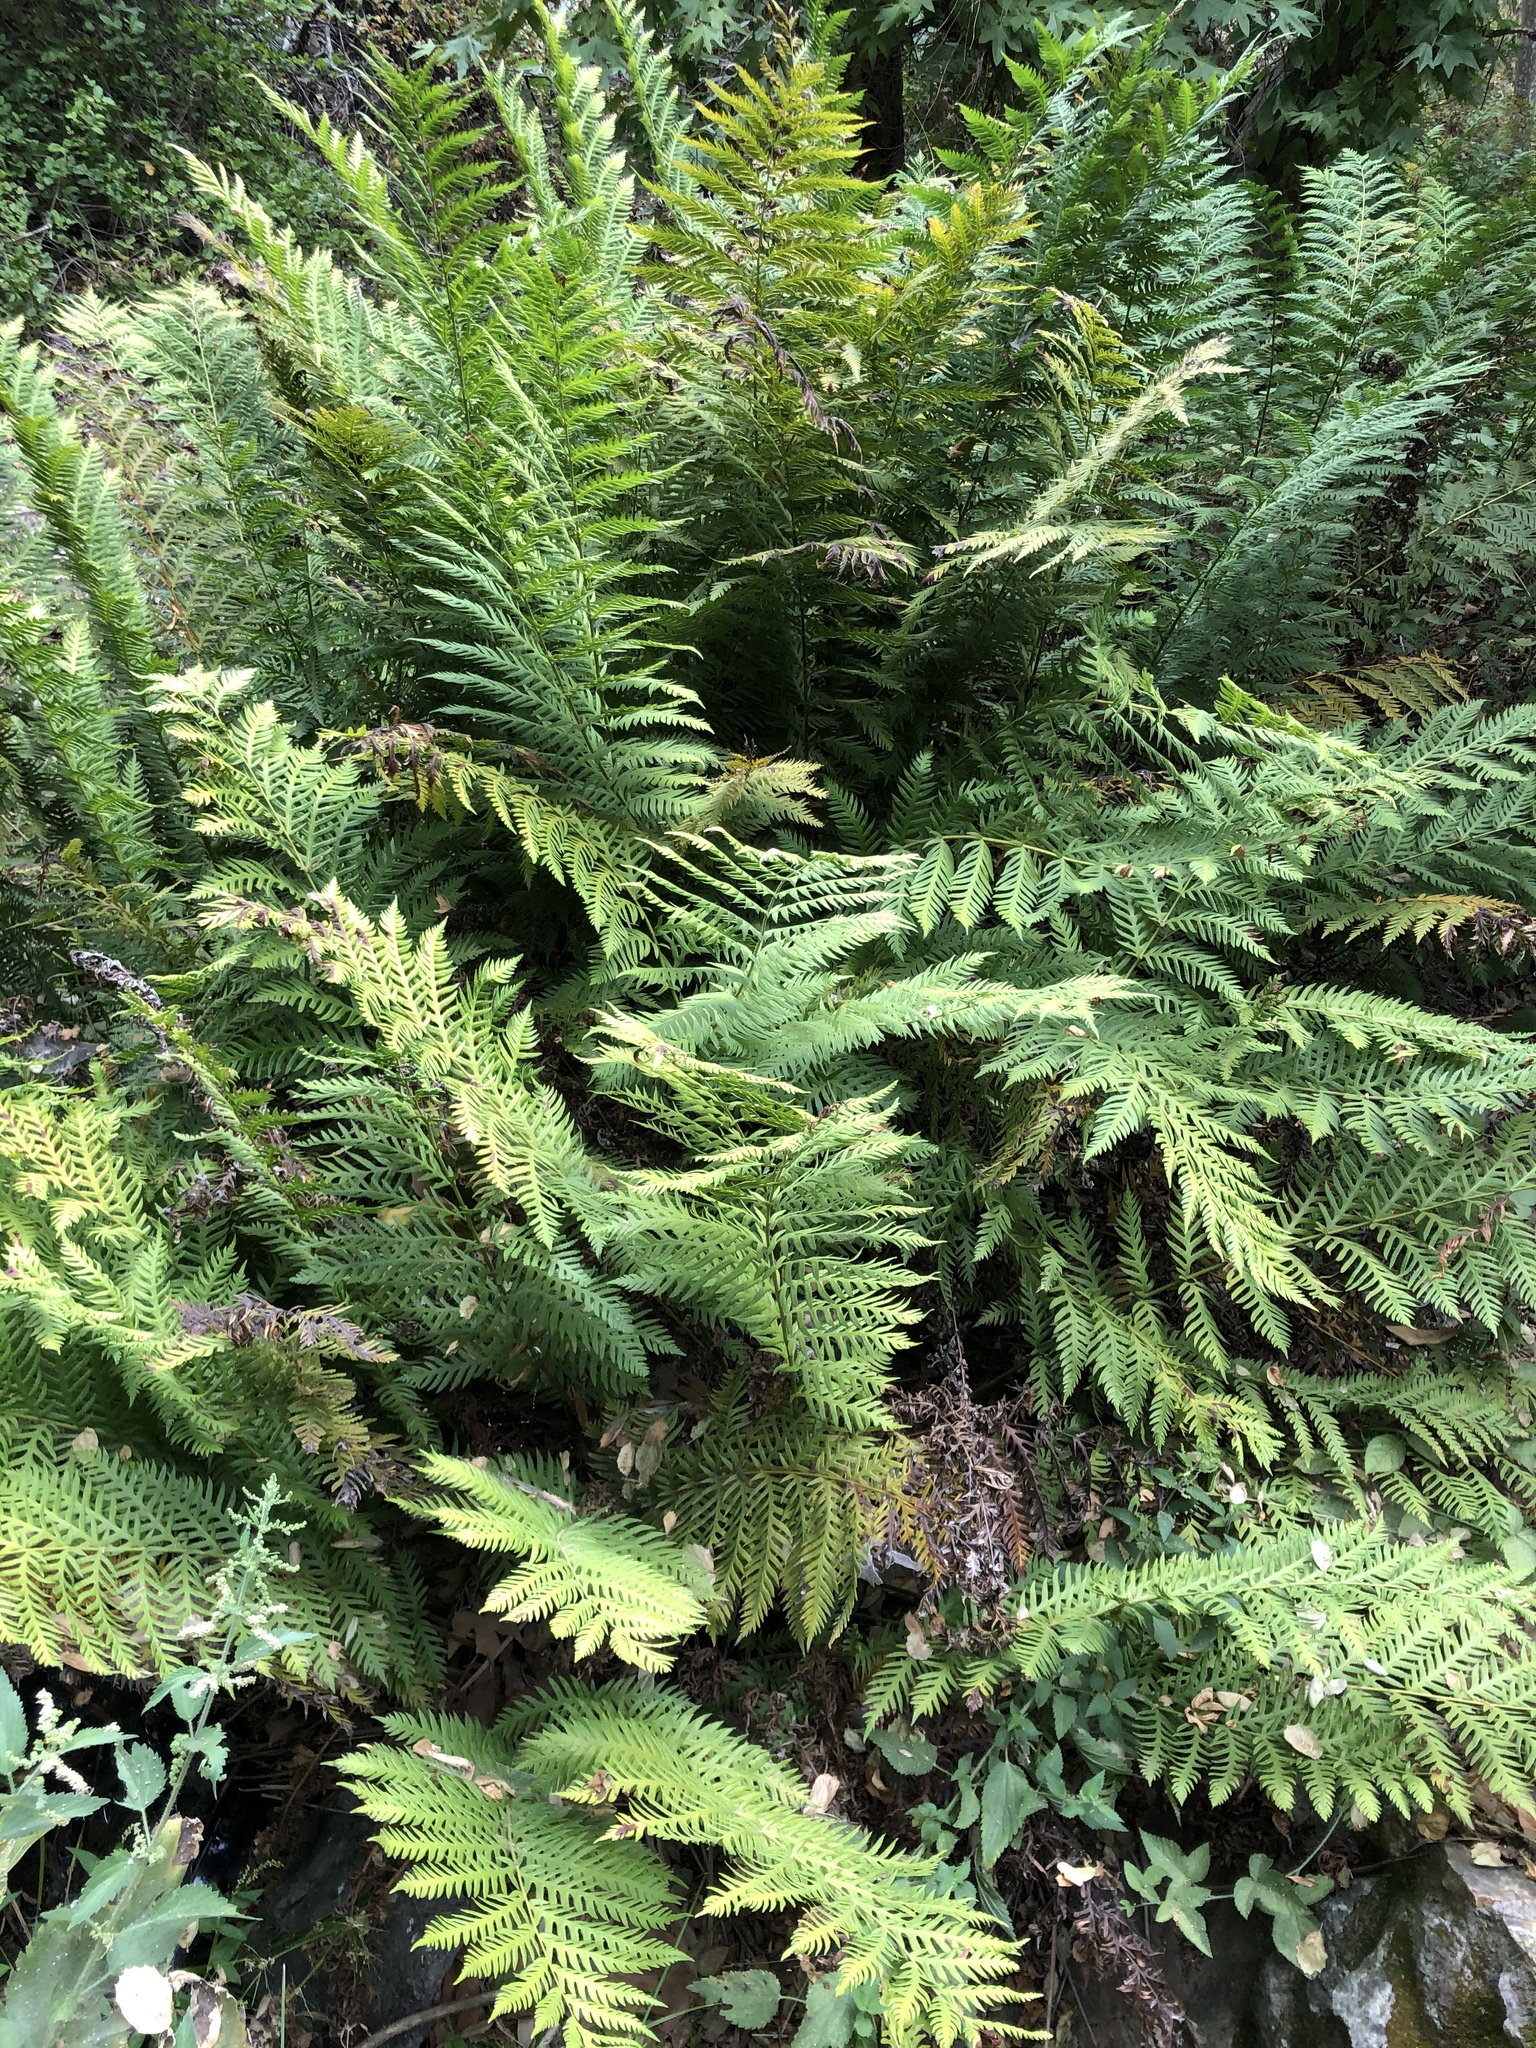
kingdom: Plantae
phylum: Tracheophyta
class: Polypodiopsida
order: Polypodiales
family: Blechnaceae
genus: Woodwardia
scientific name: Woodwardia fimbriata
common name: Giant chain fern
